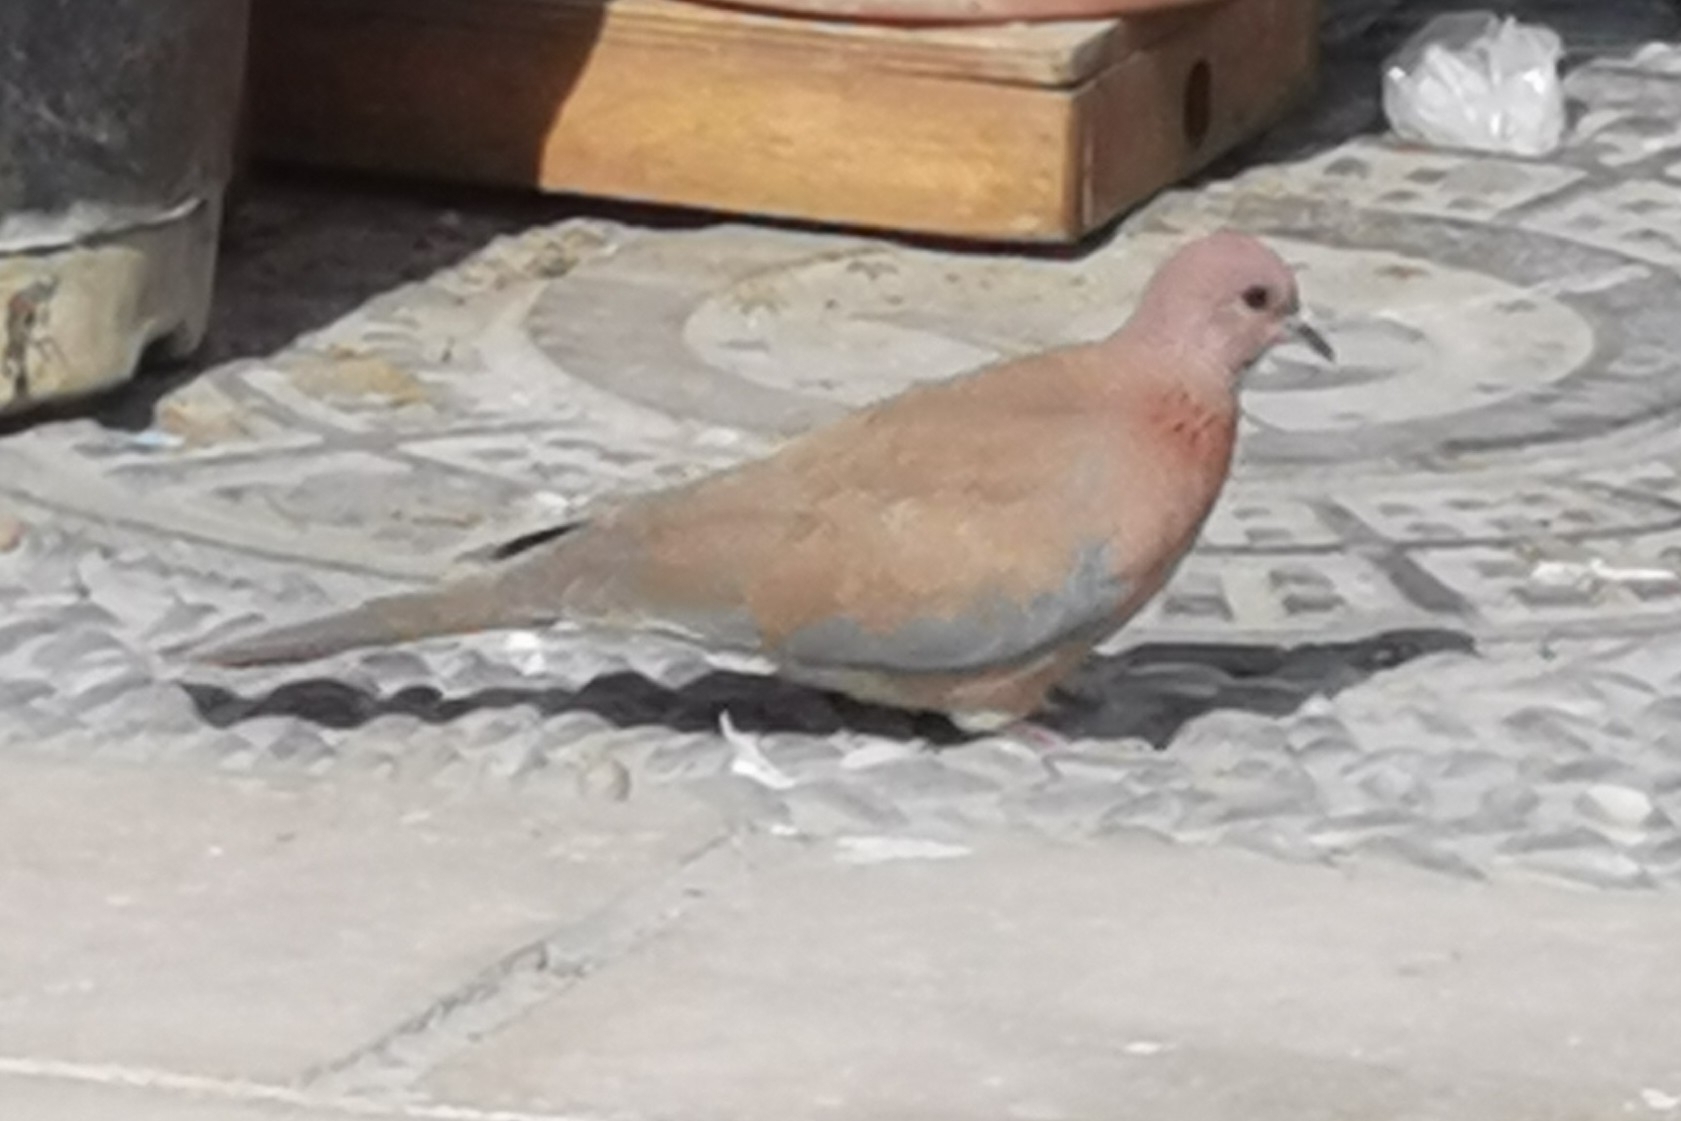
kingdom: Animalia
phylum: Chordata
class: Aves
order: Columbiformes
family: Columbidae
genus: Spilopelia
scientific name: Spilopelia senegalensis
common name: Laughing dove
